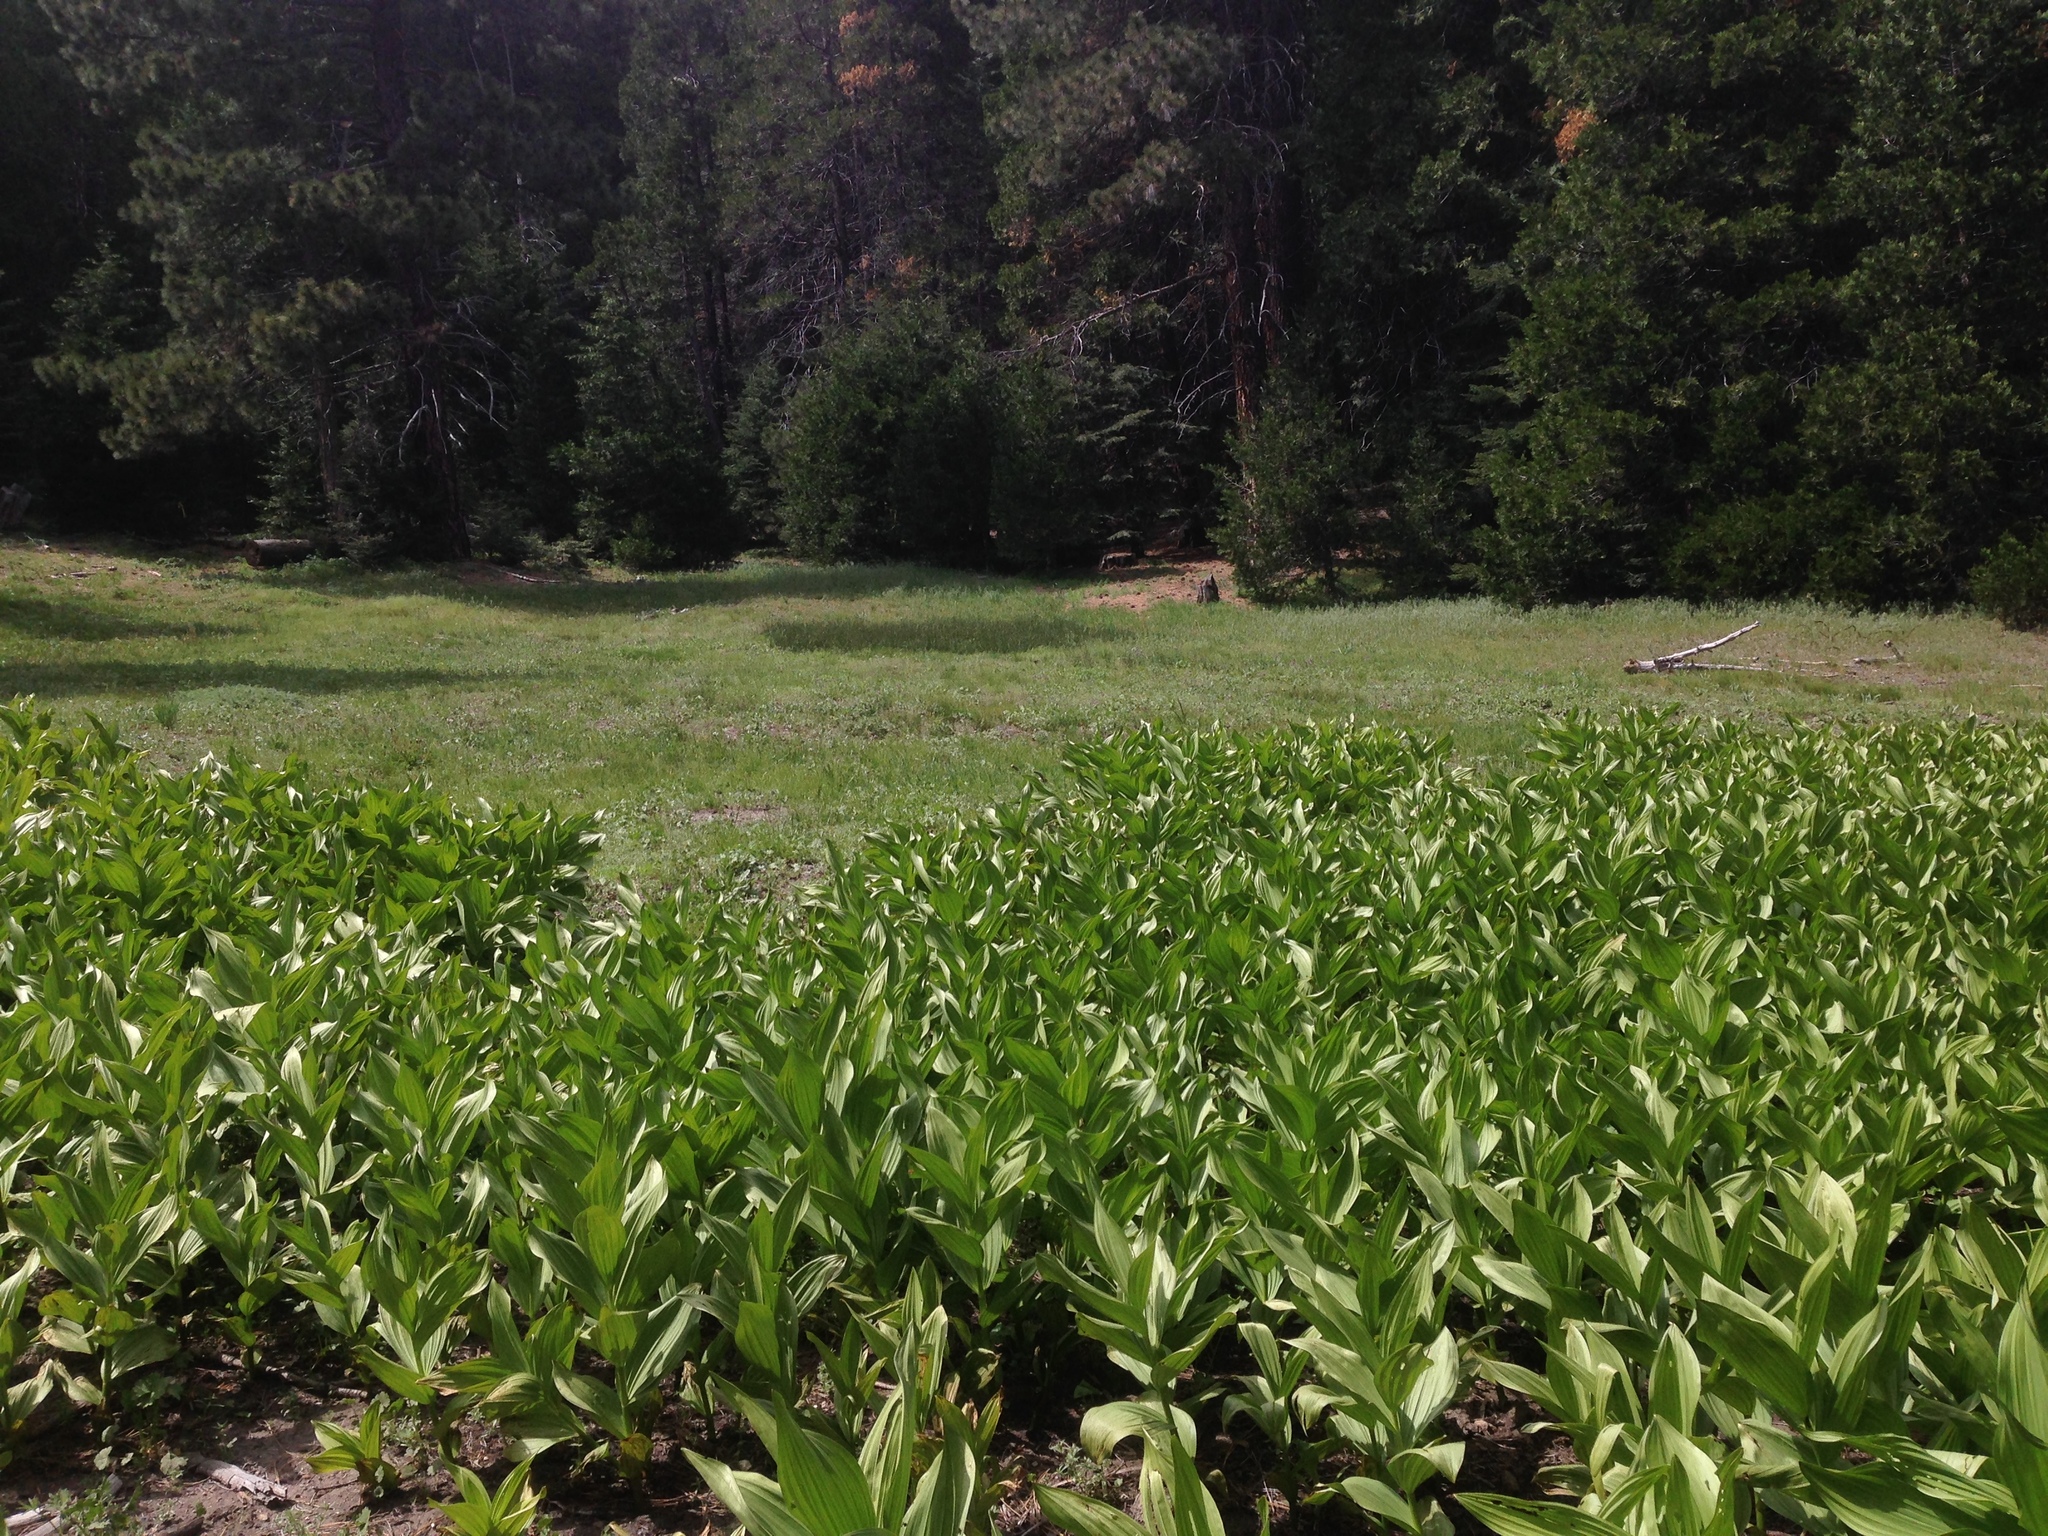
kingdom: Plantae
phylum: Tracheophyta
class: Liliopsida
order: Liliales
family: Melanthiaceae
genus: Veratrum
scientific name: Veratrum californicum
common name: California veratrum
